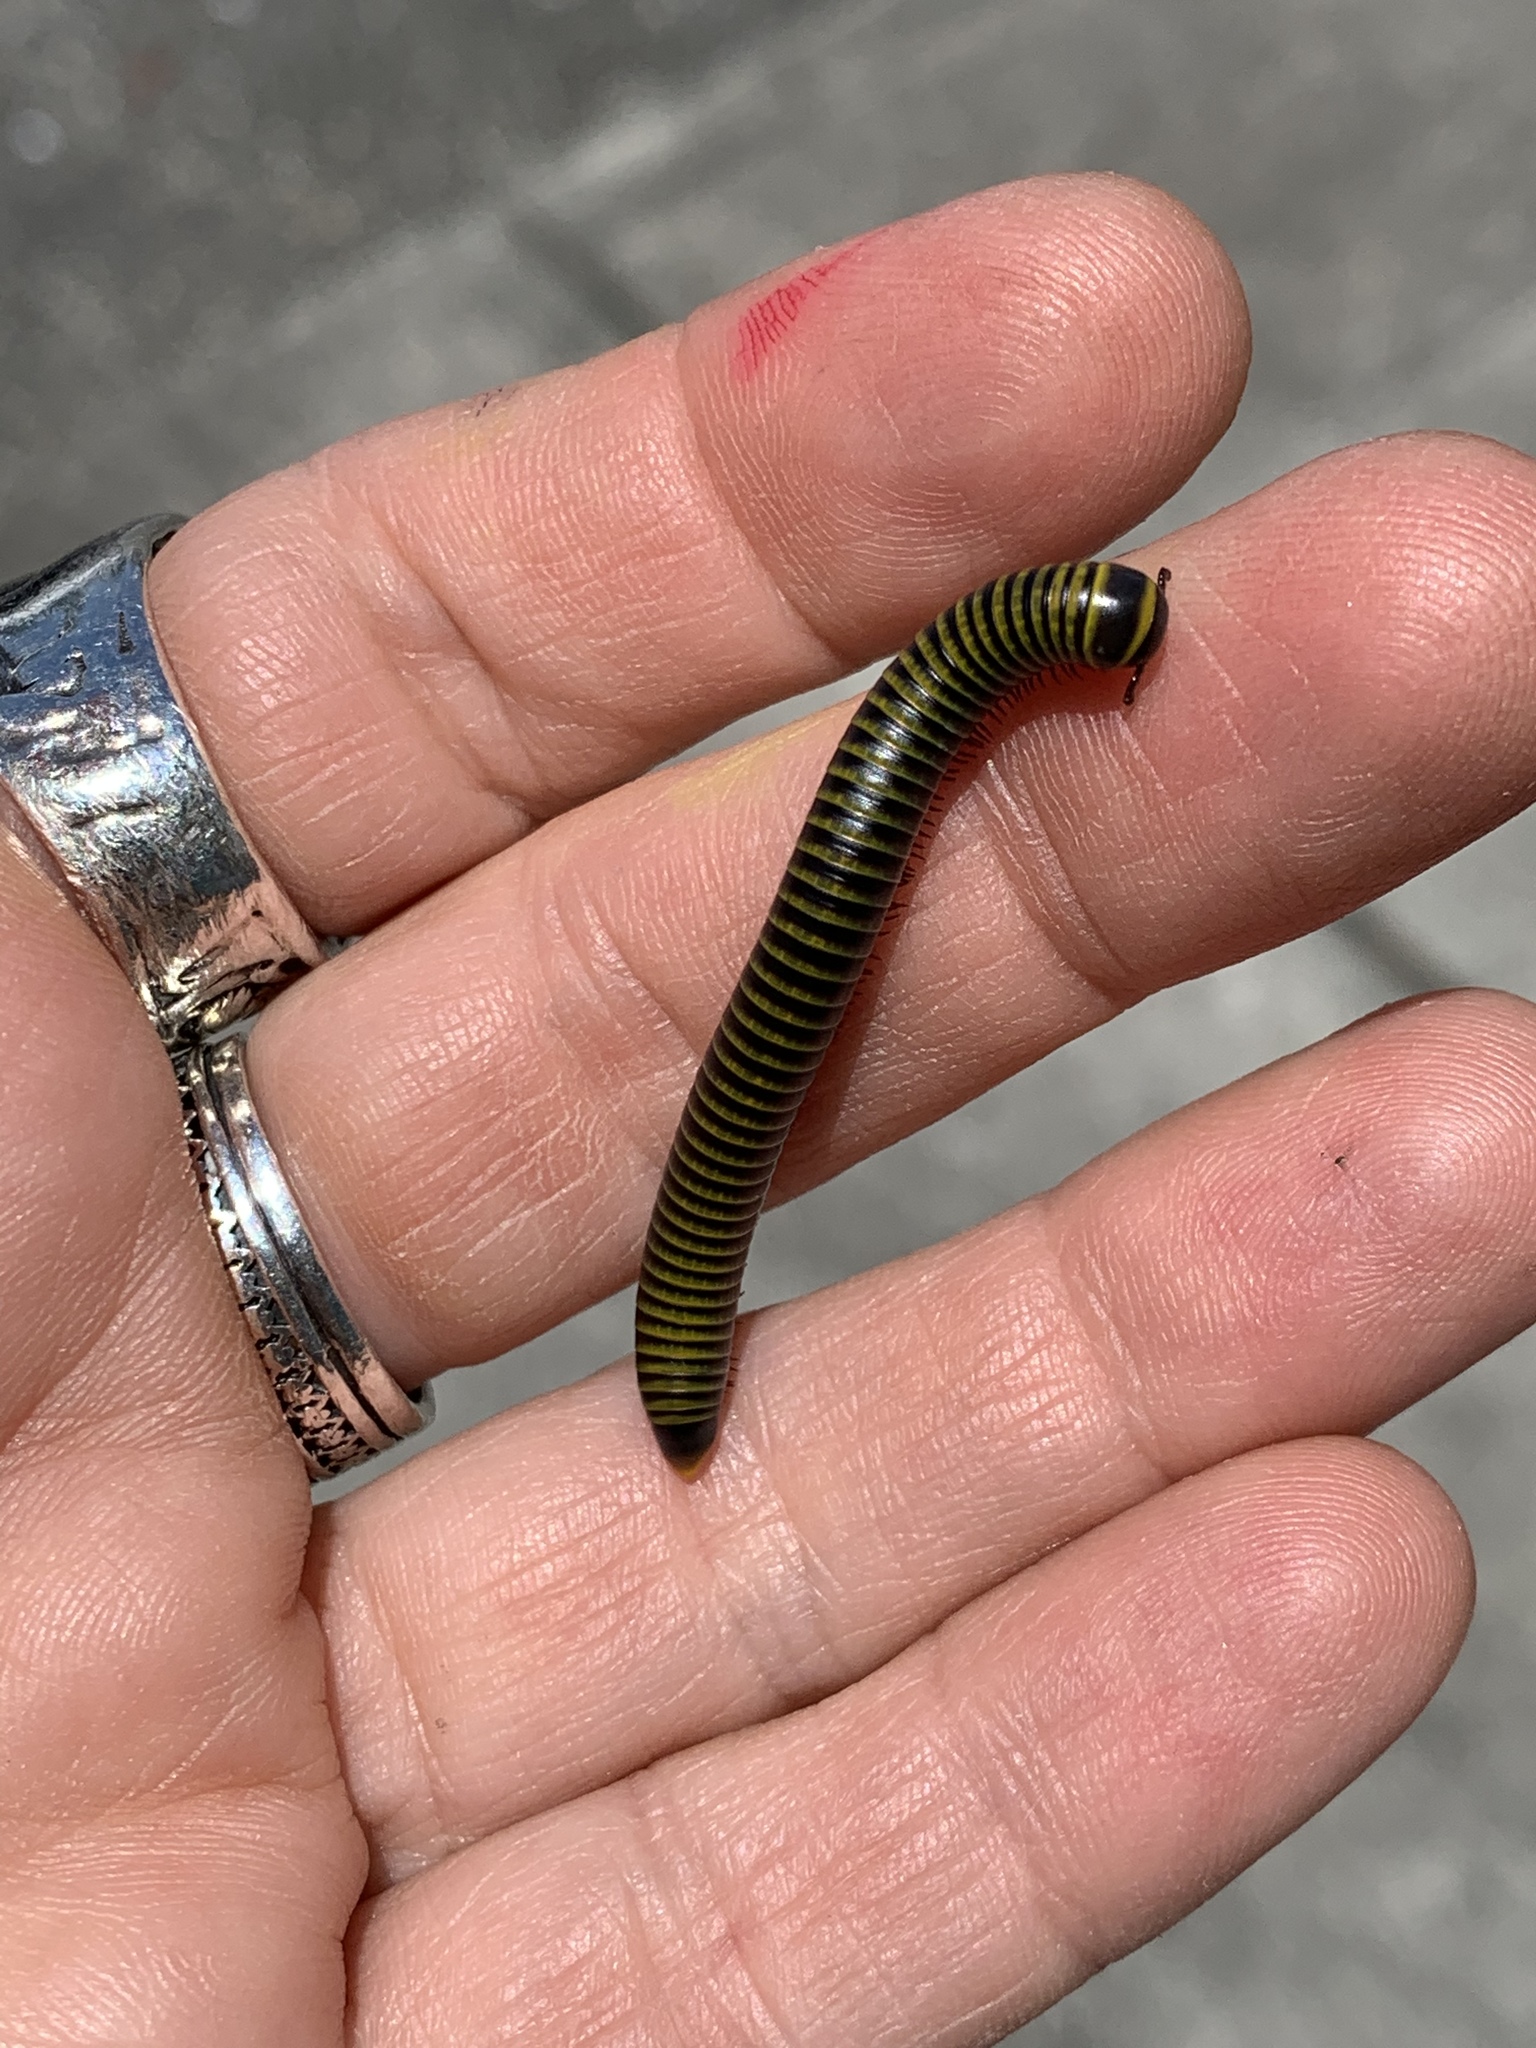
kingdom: Animalia
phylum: Arthropoda
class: Diplopoda
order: Spirobolida
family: Rhinocricidae
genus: Anadenobolus
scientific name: Anadenobolus monilicornis
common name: Caribbean millipede
